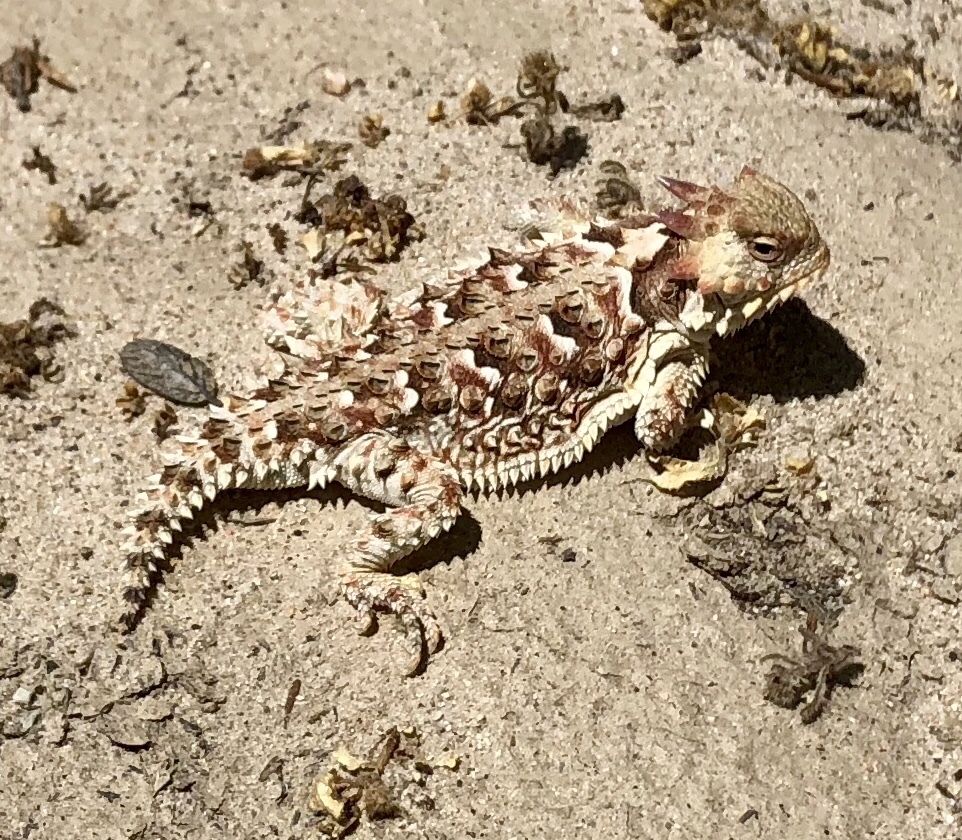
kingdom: Animalia
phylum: Chordata
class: Squamata
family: Phrynosomatidae
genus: Phrynosoma
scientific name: Phrynosoma blainvillii
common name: San diego horned lizard
